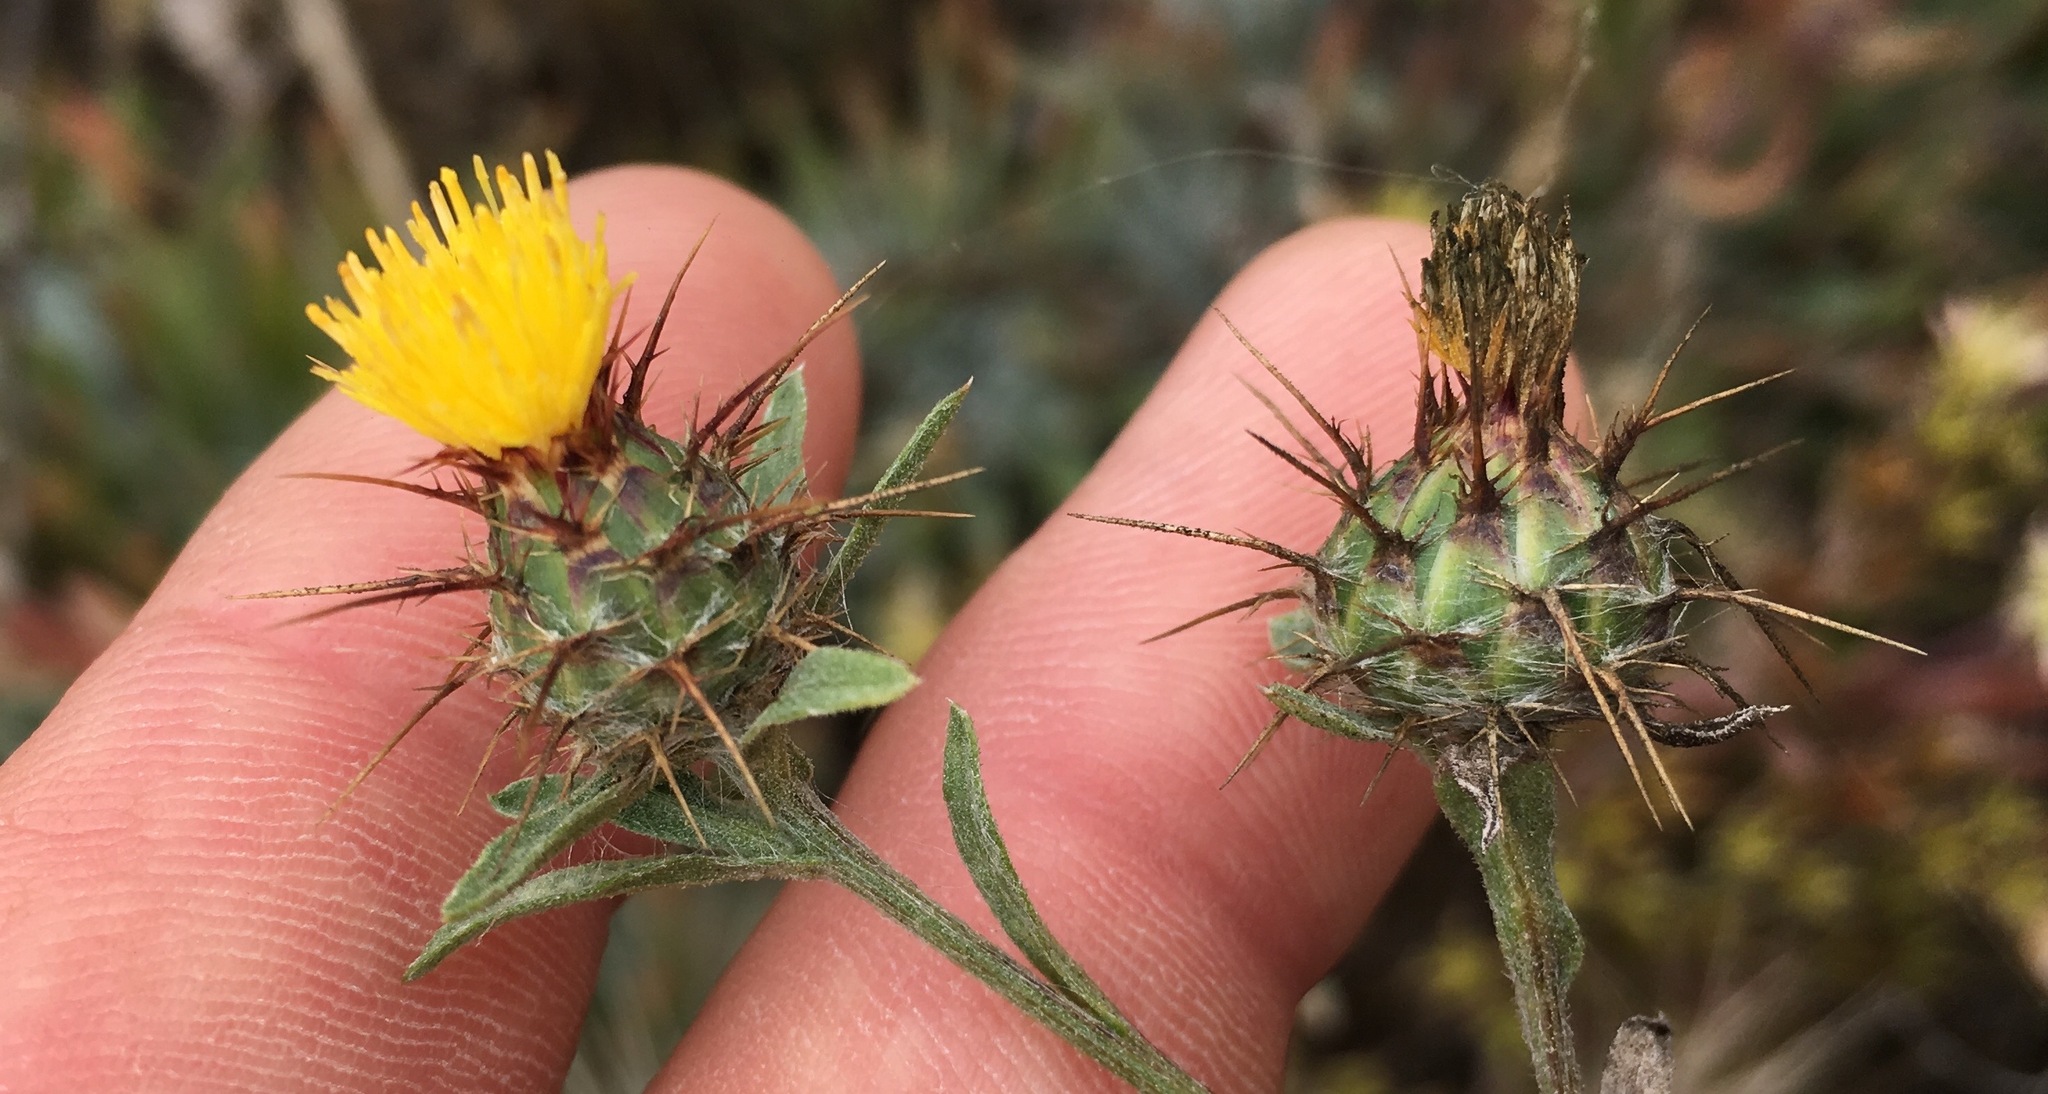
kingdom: Plantae
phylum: Tracheophyta
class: Magnoliopsida
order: Asterales
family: Asteraceae
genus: Centaurea
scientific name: Centaurea melitensis
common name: Maltese star-thistle
